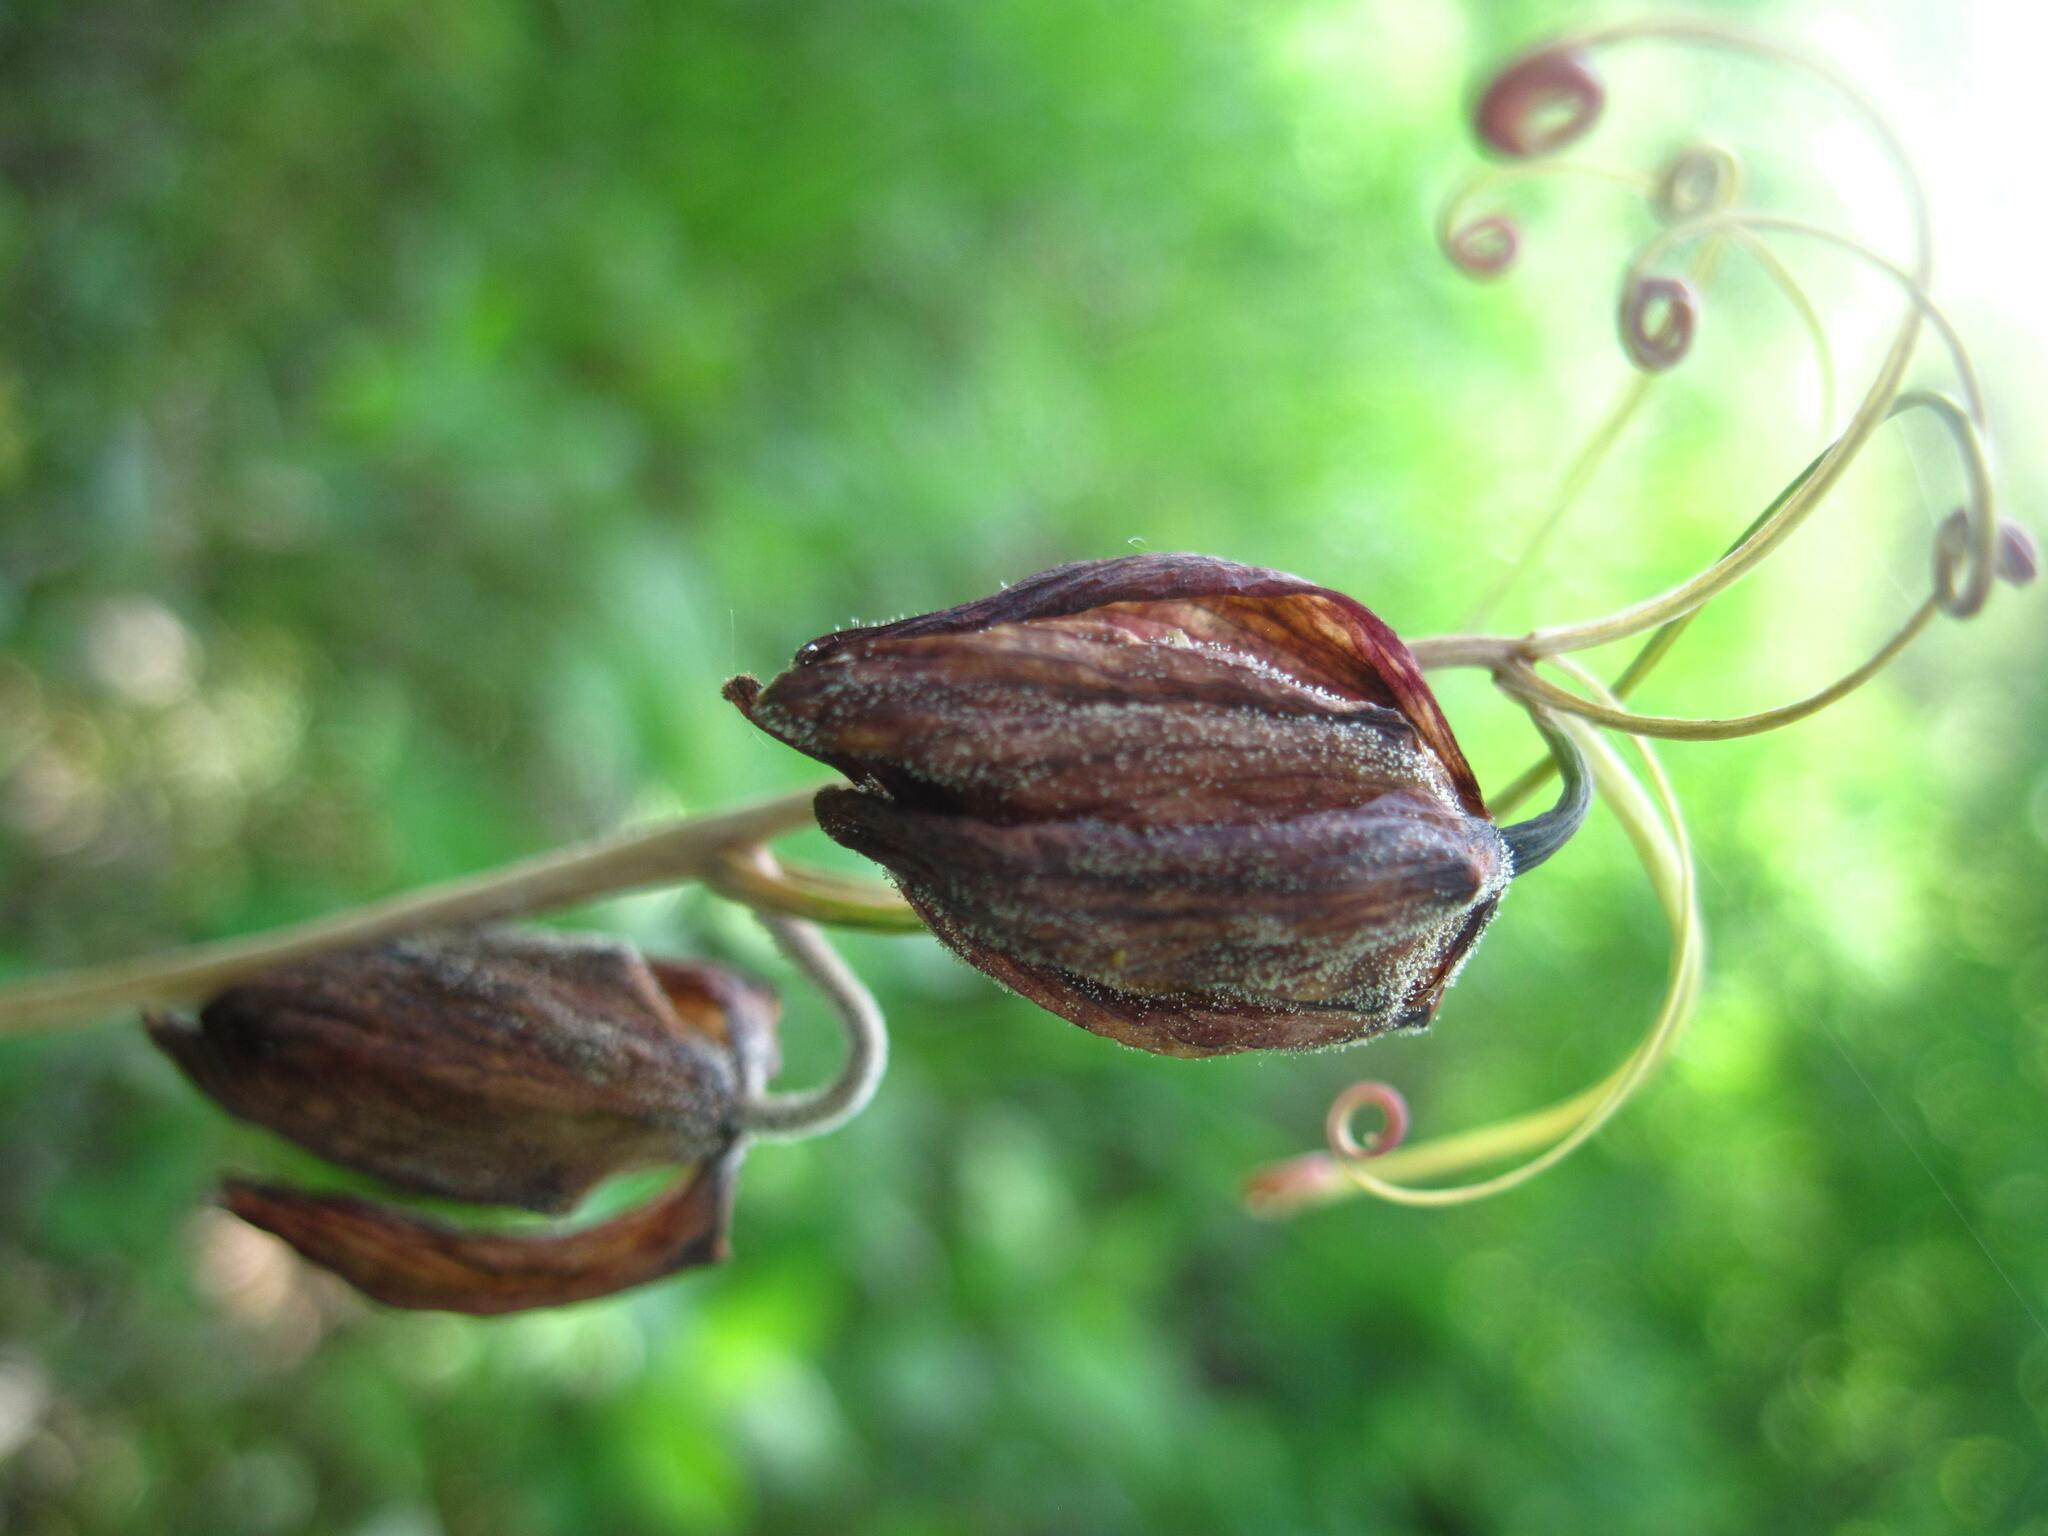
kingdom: Plantae
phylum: Tracheophyta
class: Liliopsida
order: Liliales
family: Liliaceae
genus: Fritillaria
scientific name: Fritillaria ruthenica
